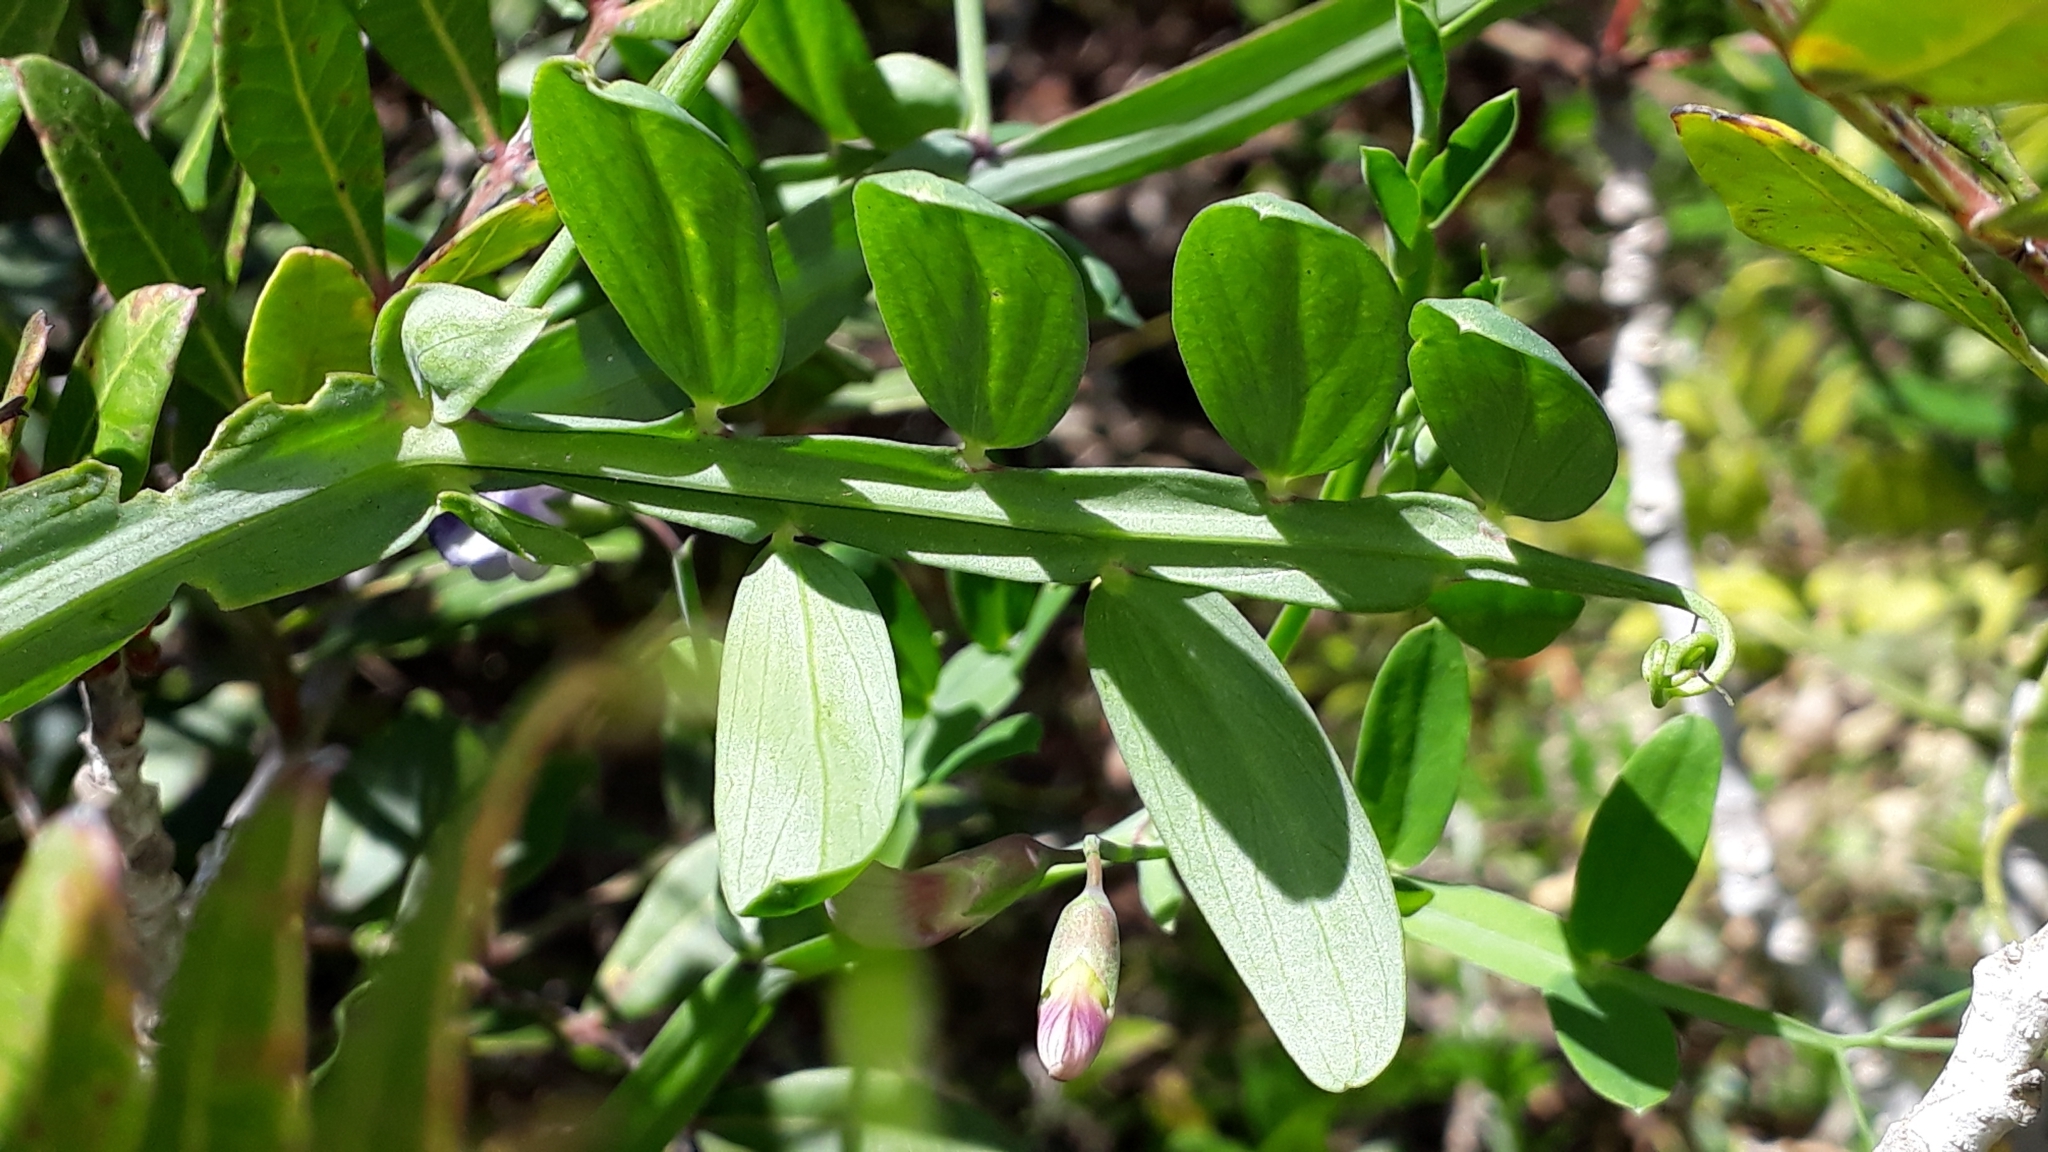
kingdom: Plantae
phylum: Tracheophyta
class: Magnoliopsida
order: Fabales
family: Fabaceae
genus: Lathyrus
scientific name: Lathyrus clymenum
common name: Spanish vetchling
